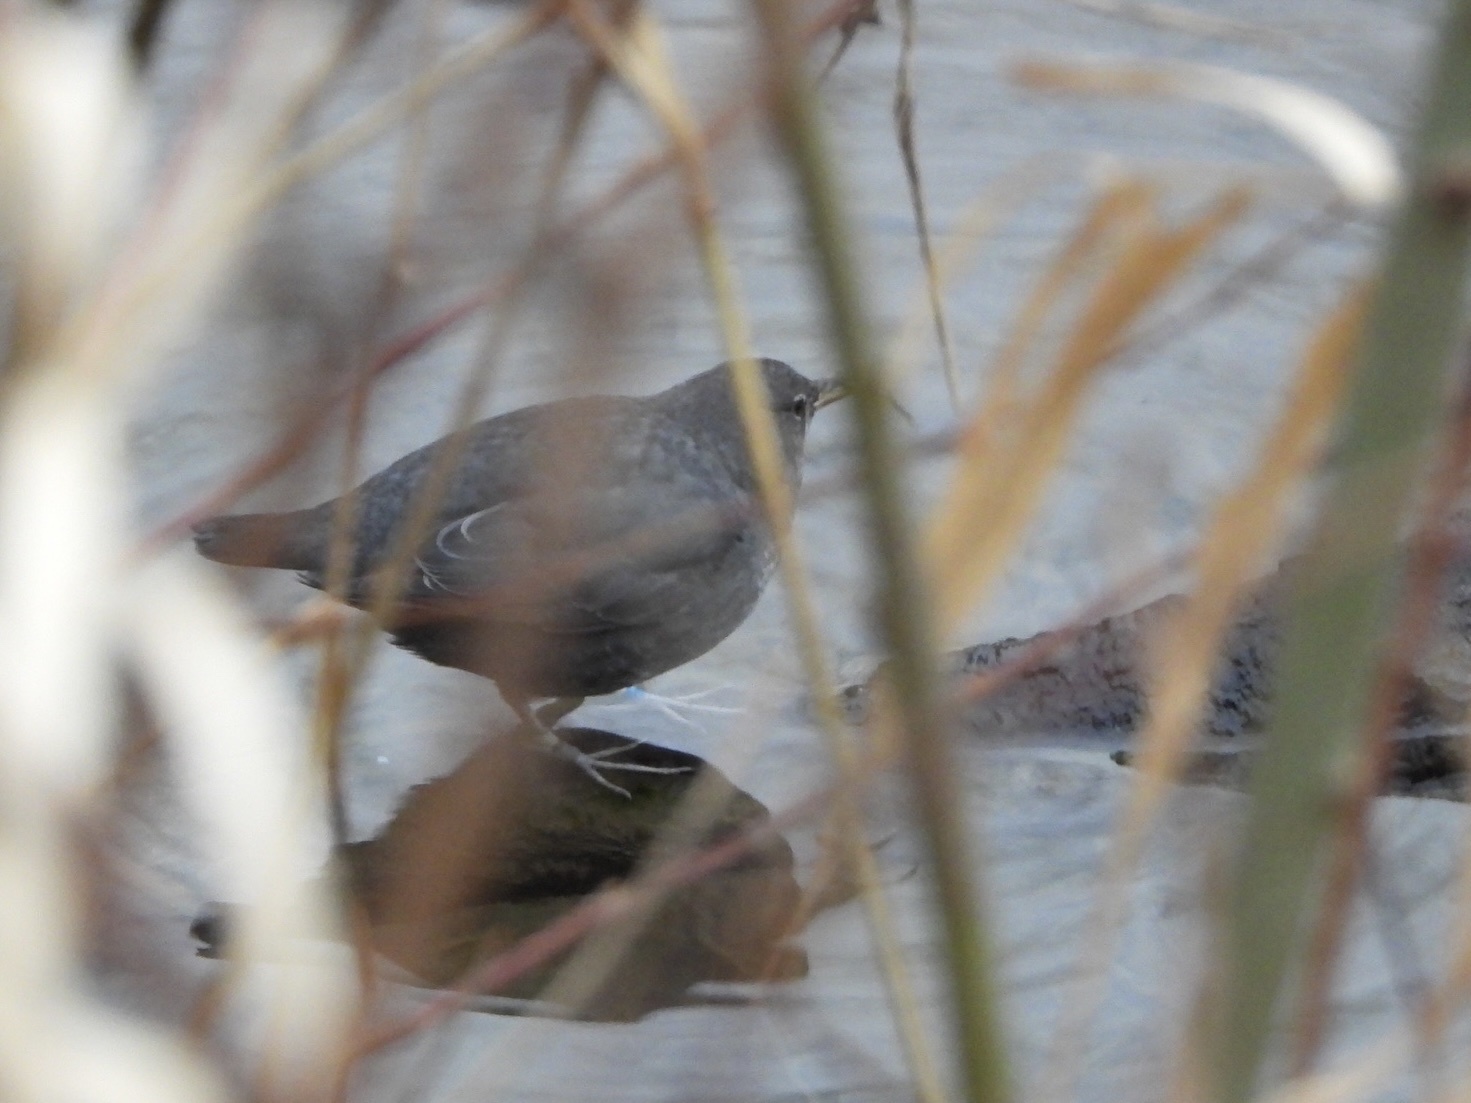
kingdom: Animalia
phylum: Chordata
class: Aves
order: Passeriformes
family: Cinclidae
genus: Cinclus
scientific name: Cinclus mexicanus
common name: American dipper
